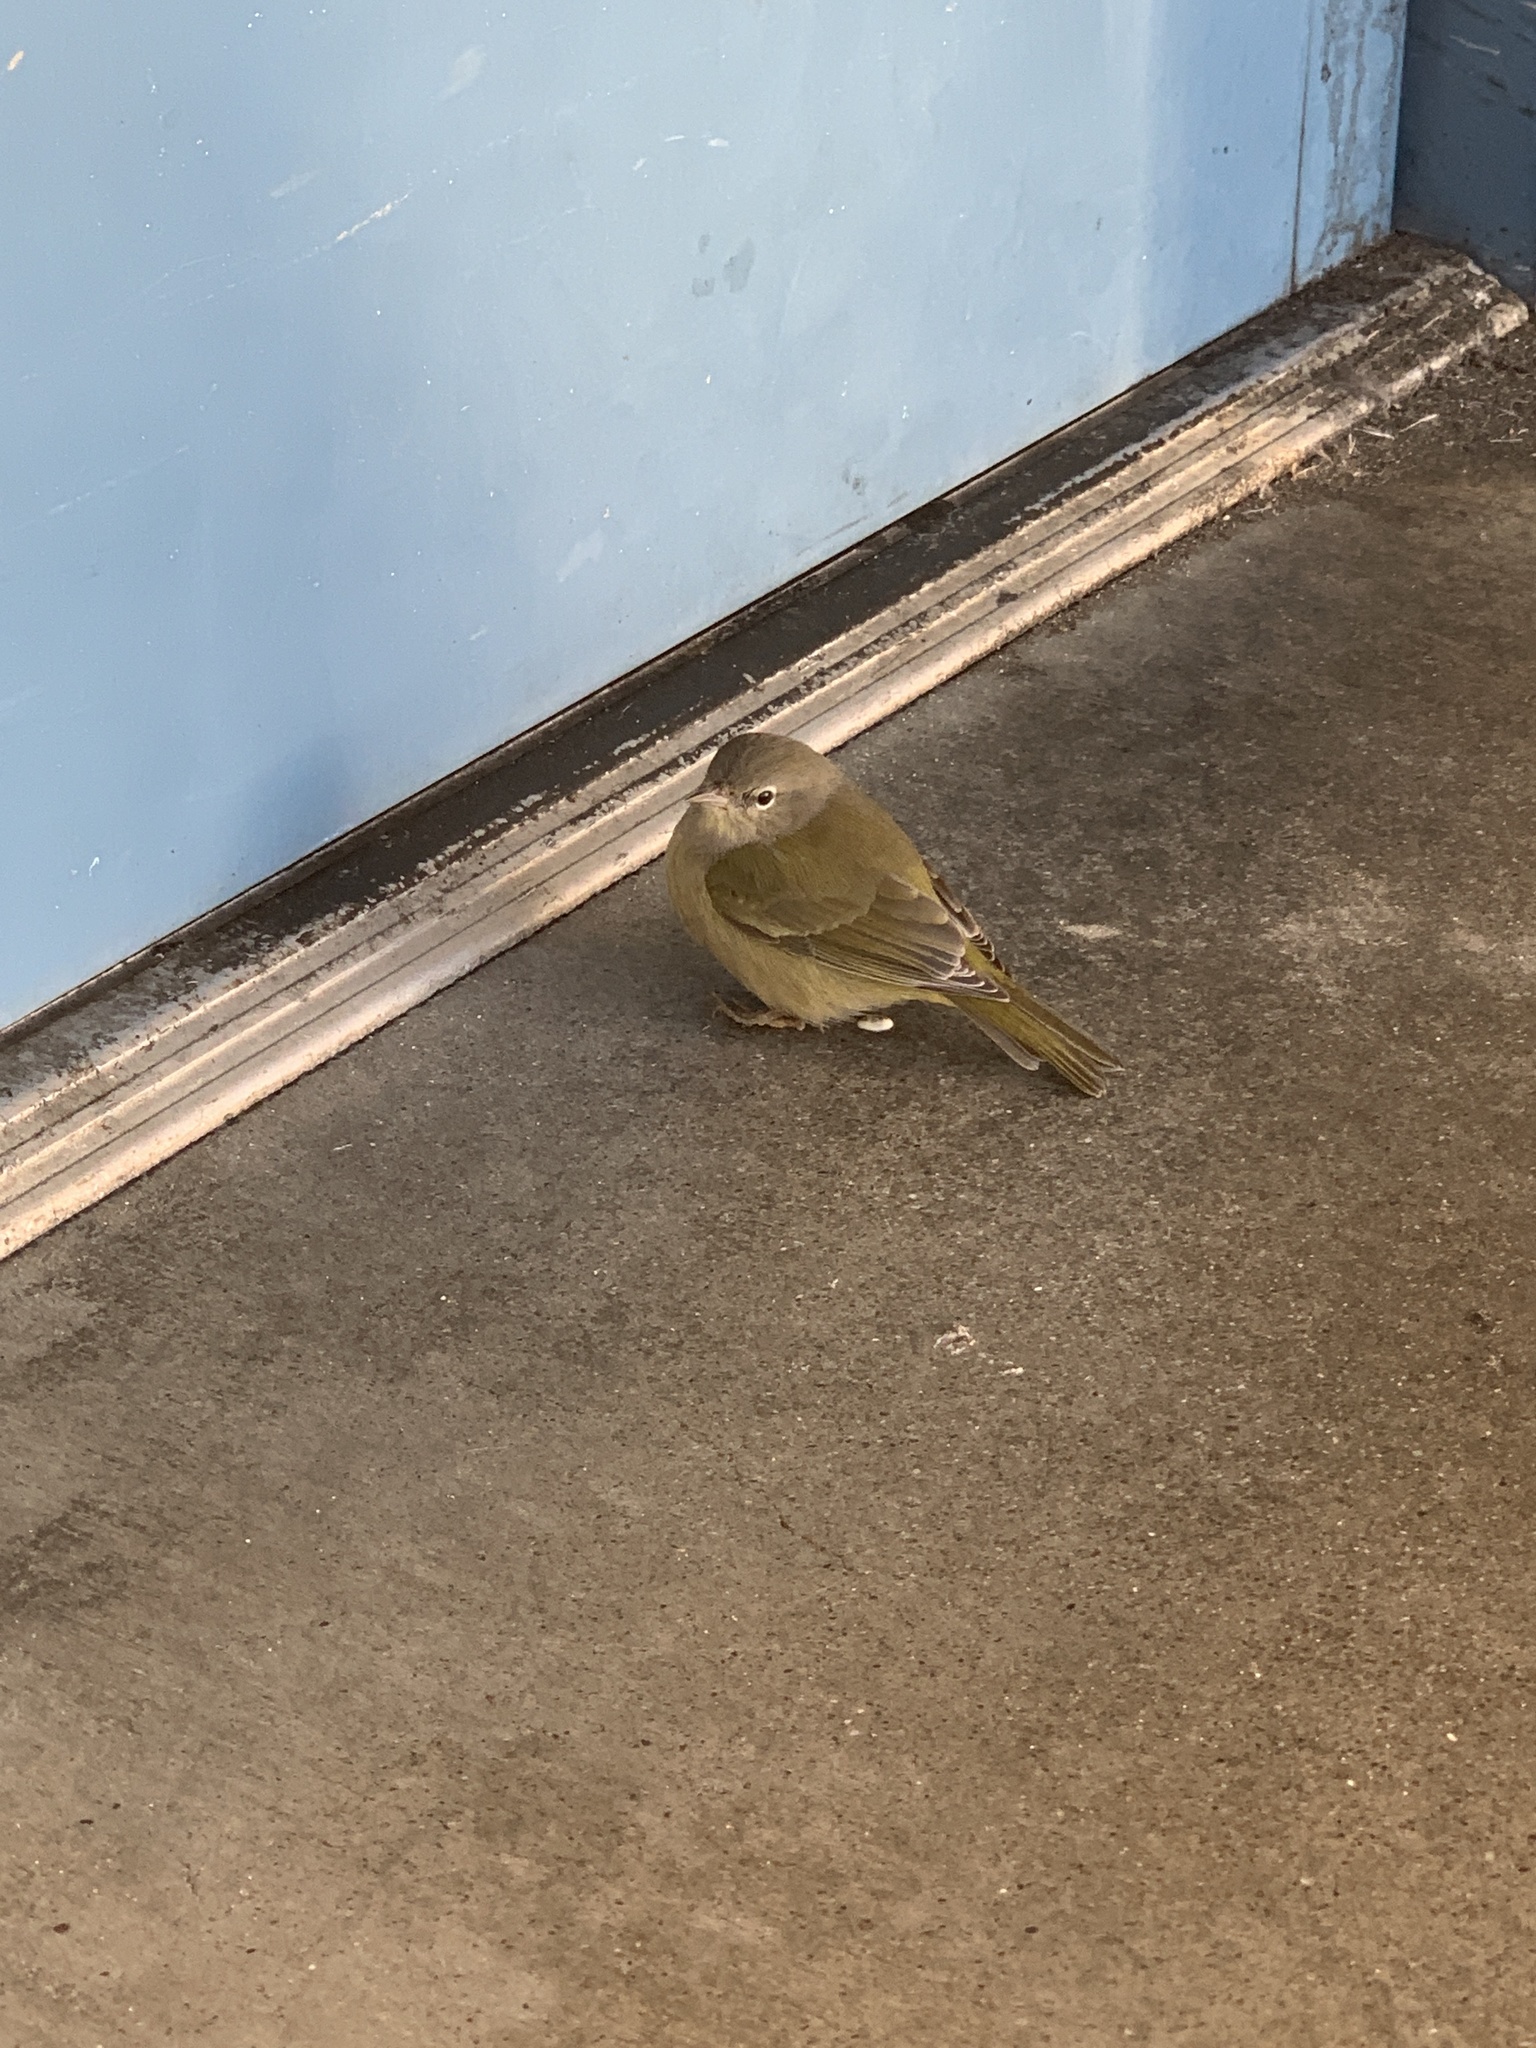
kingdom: Animalia
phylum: Chordata
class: Aves
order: Passeriformes
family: Parulidae
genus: Leiothlypis
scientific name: Leiothlypis celata
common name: Orange-crowned warbler
